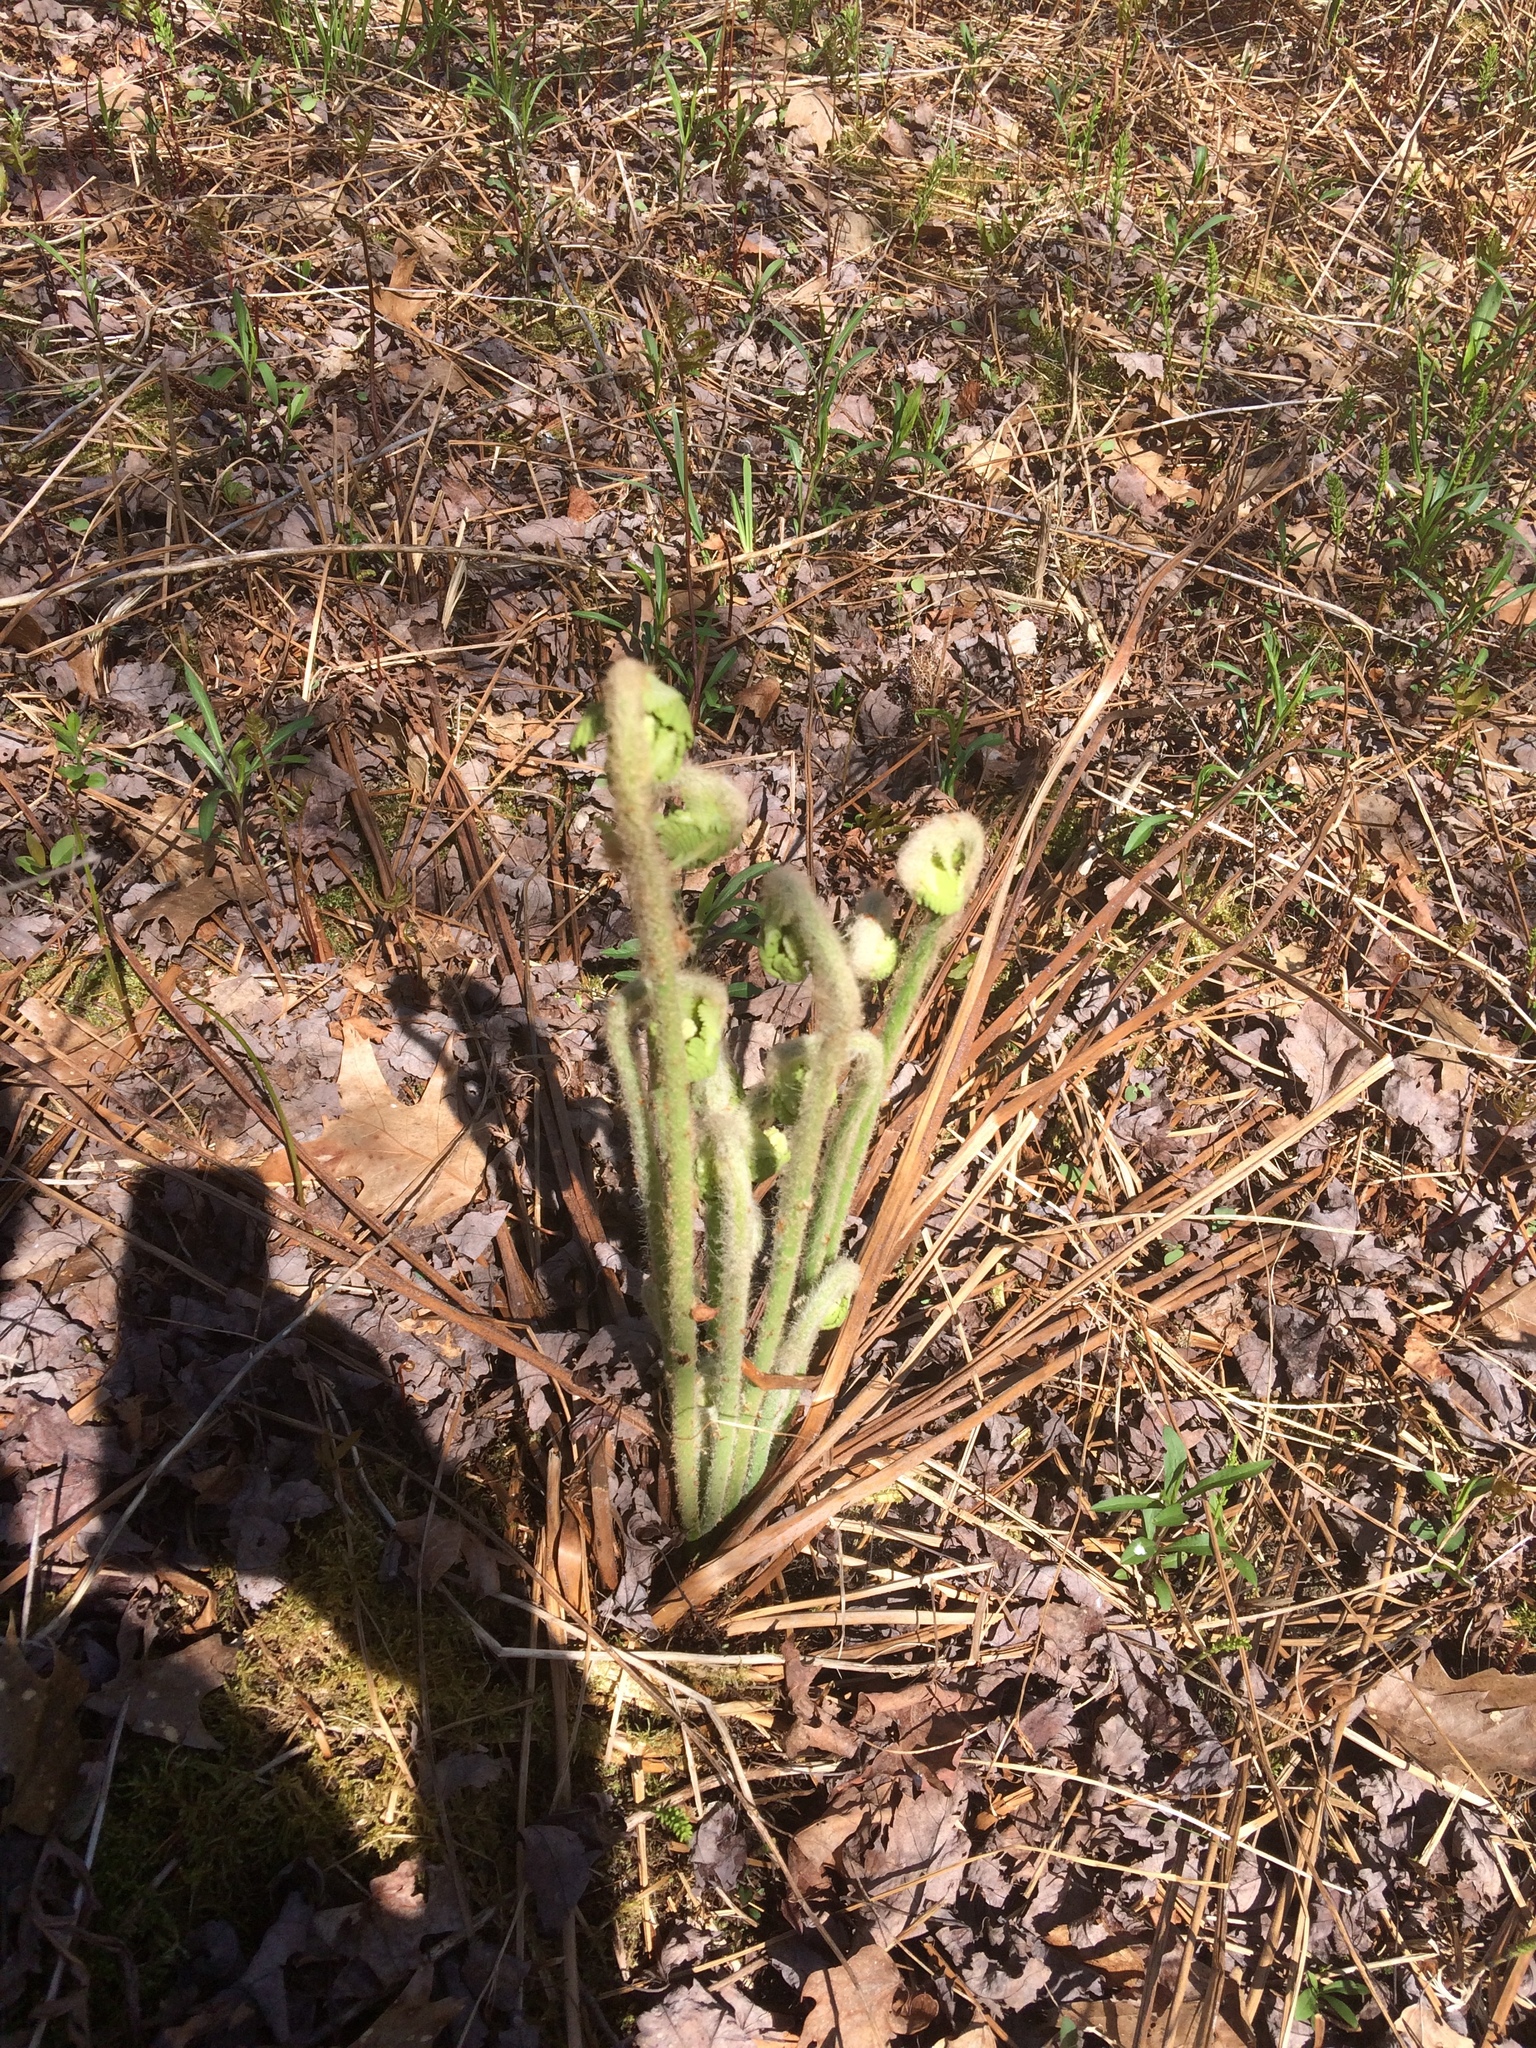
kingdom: Plantae
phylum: Tracheophyta
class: Polypodiopsida
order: Osmundales
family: Osmundaceae
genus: Osmundastrum
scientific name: Osmundastrum cinnamomeum
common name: Cinnamon fern
